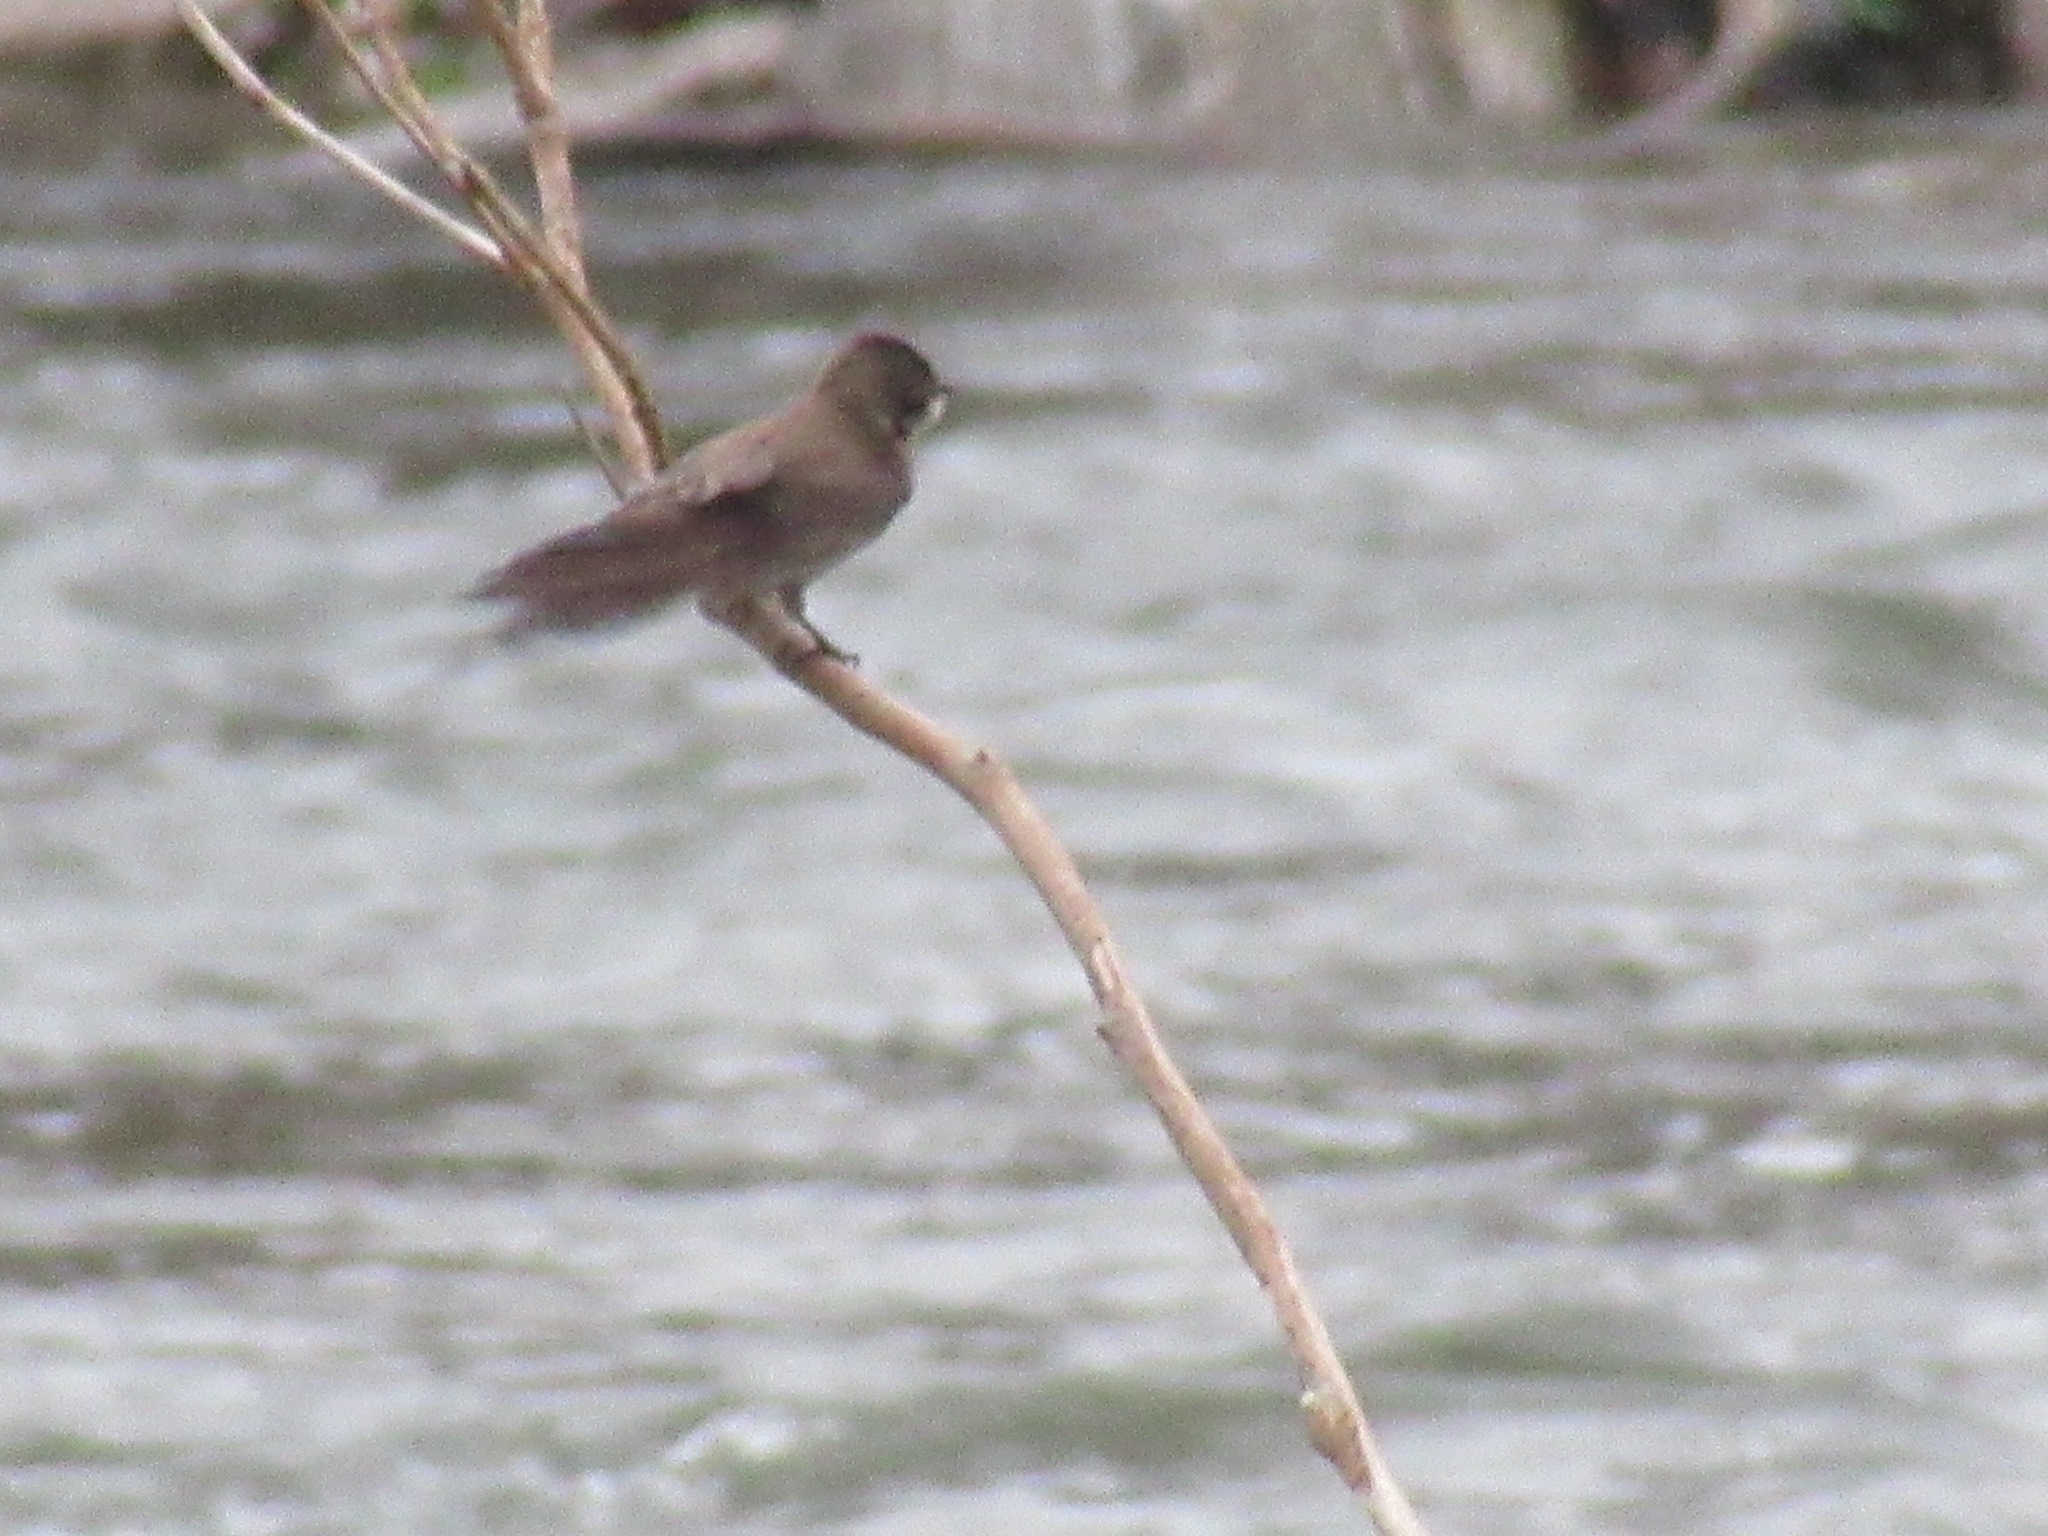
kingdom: Animalia
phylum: Chordata
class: Aves
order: Passeriformes
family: Hirundinidae
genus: Stelgidopteryx
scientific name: Stelgidopteryx serripennis
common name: Northern rough-winged swallow
